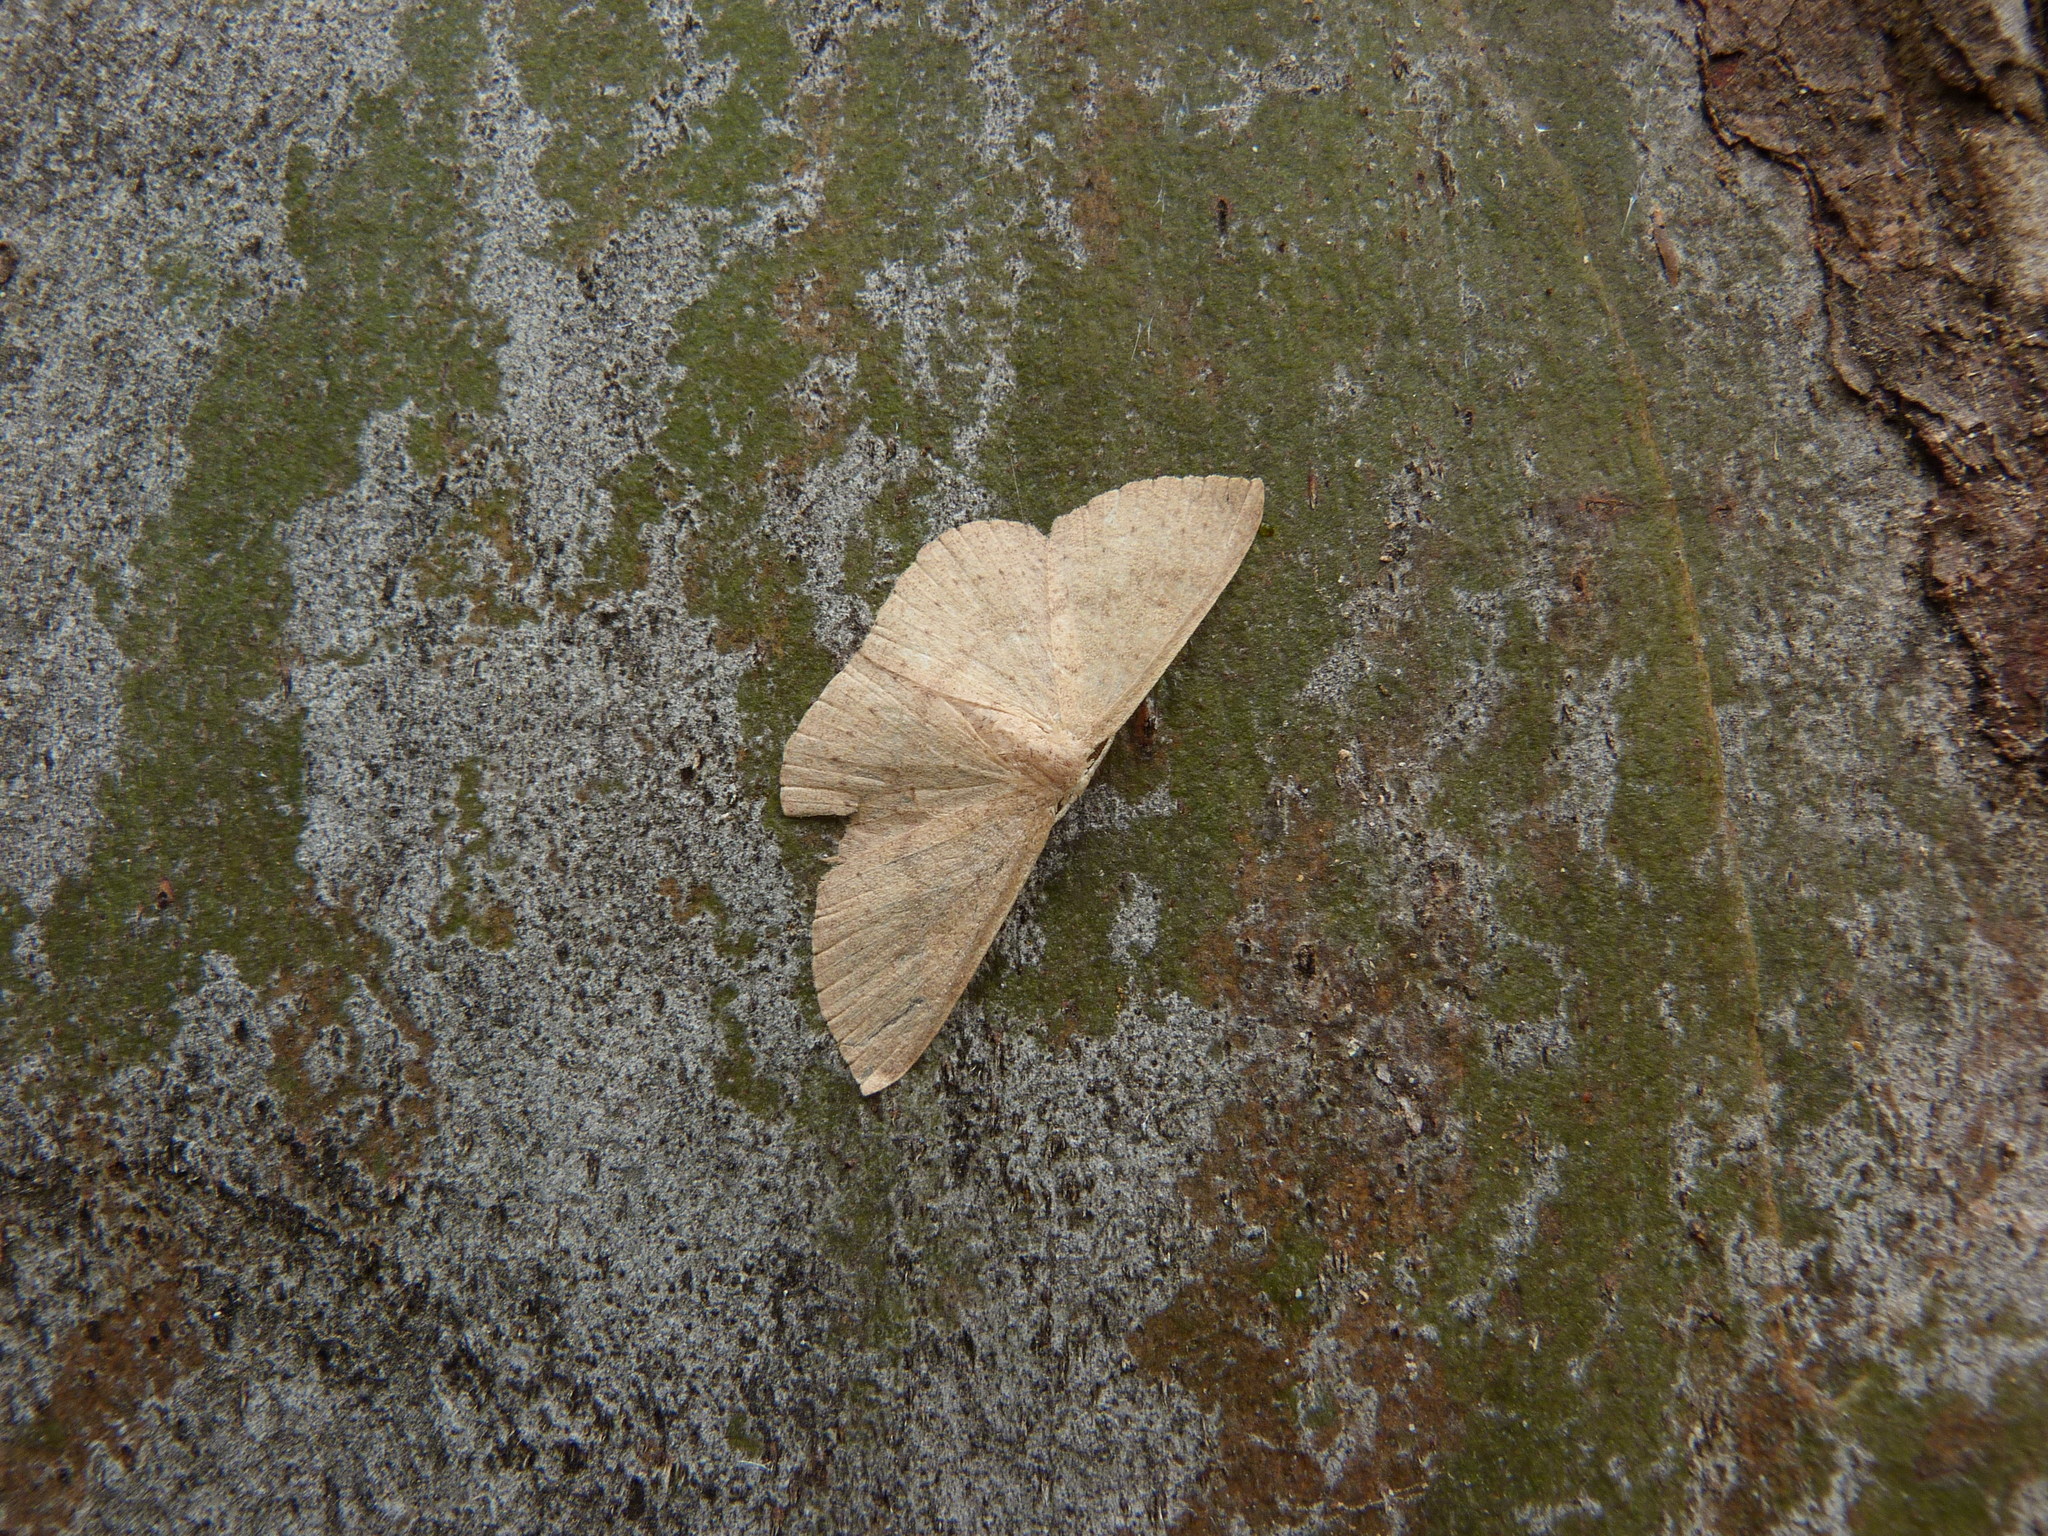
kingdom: Animalia
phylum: Arthropoda
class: Insecta
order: Lepidoptera
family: Geometridae
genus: Cyclophora
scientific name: Cyclophora obstataria
